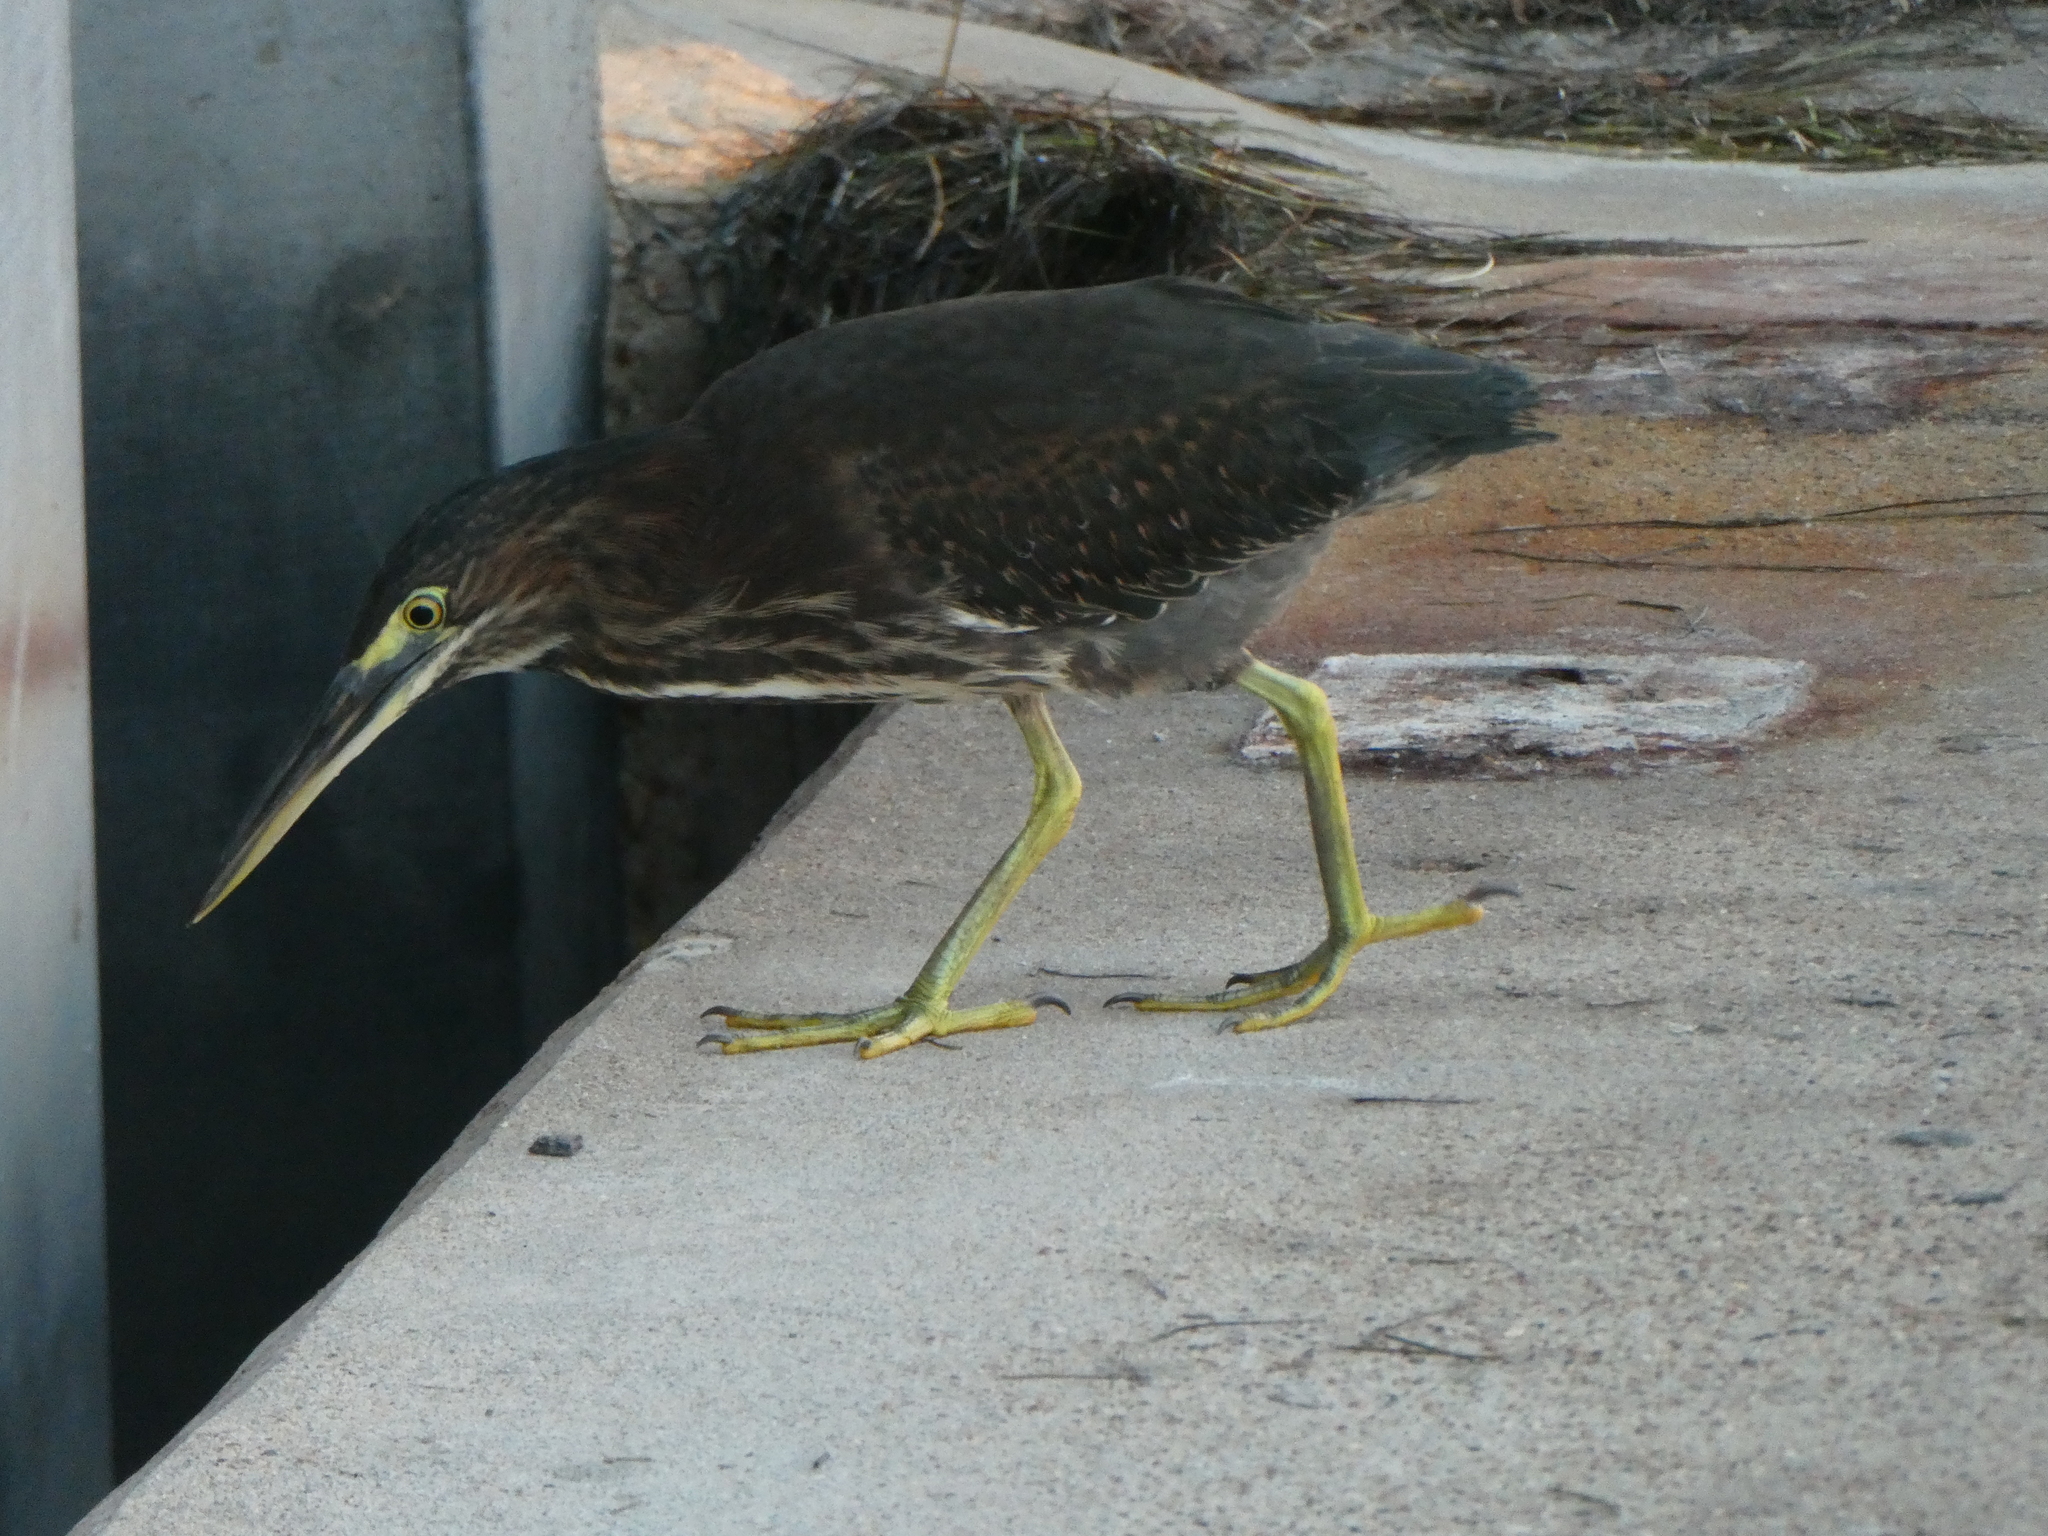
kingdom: Animalia
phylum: Chordata
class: Aves
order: Pelecaniformes
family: Ardeidae
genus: Butorides
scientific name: Butorides virescens
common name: Green heron
